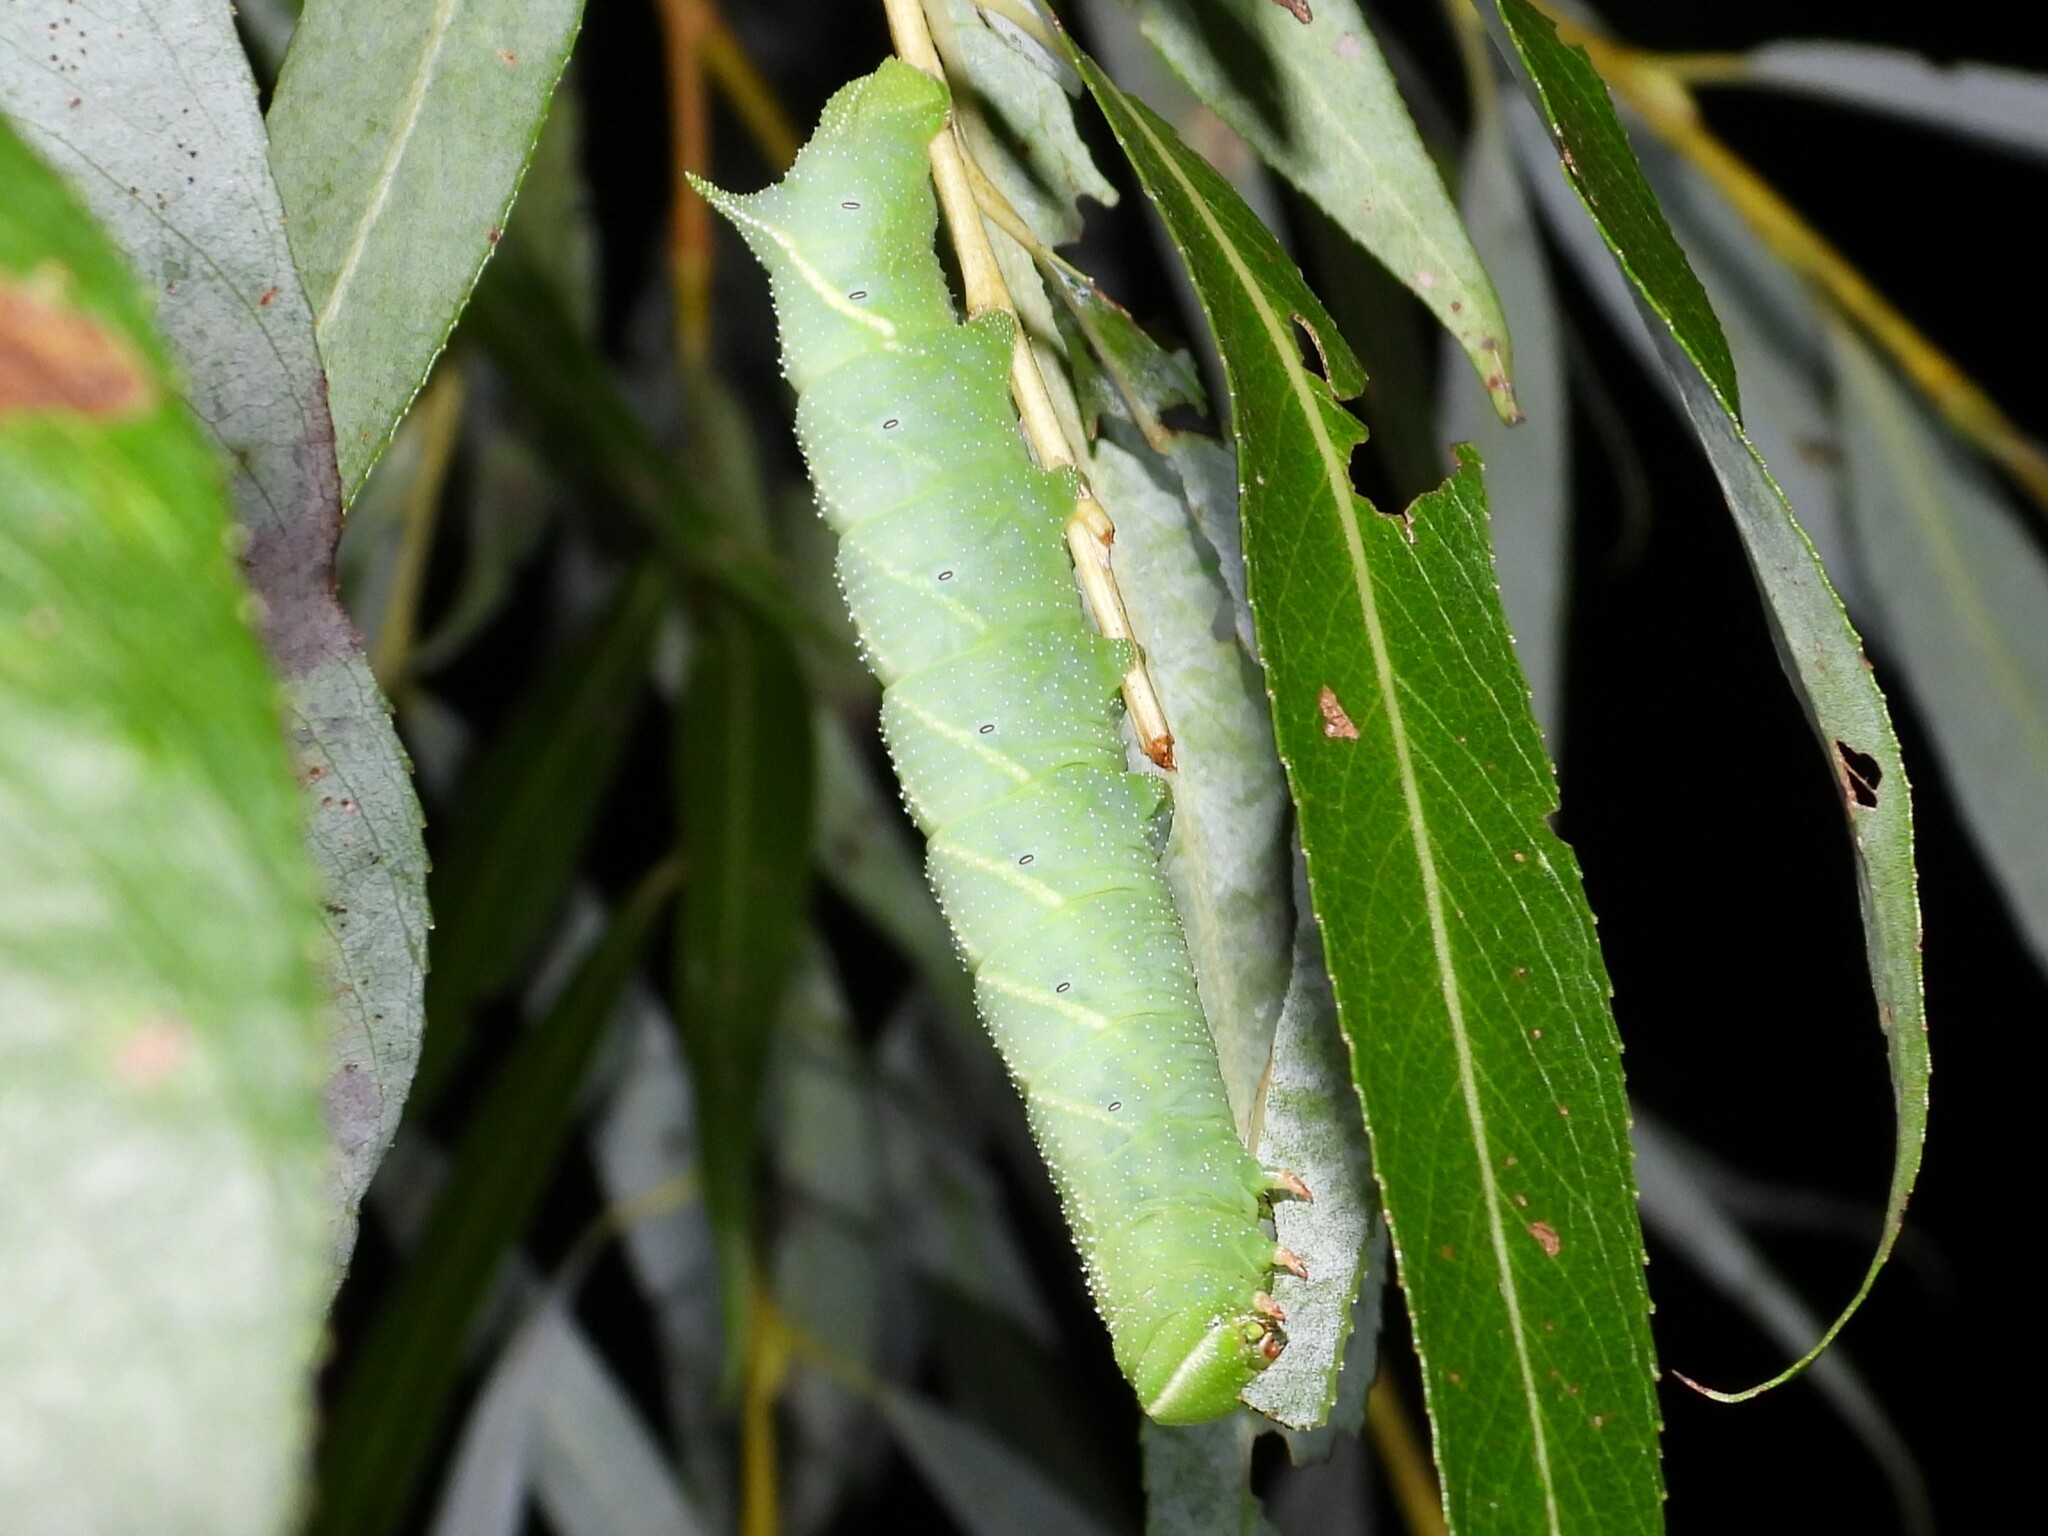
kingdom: Animalia
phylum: Arthropoda
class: Insecta
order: Lepidoptera
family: Sphingidae
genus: Paonias
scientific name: Paonias excaecata
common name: Blind-eyed sphinx
